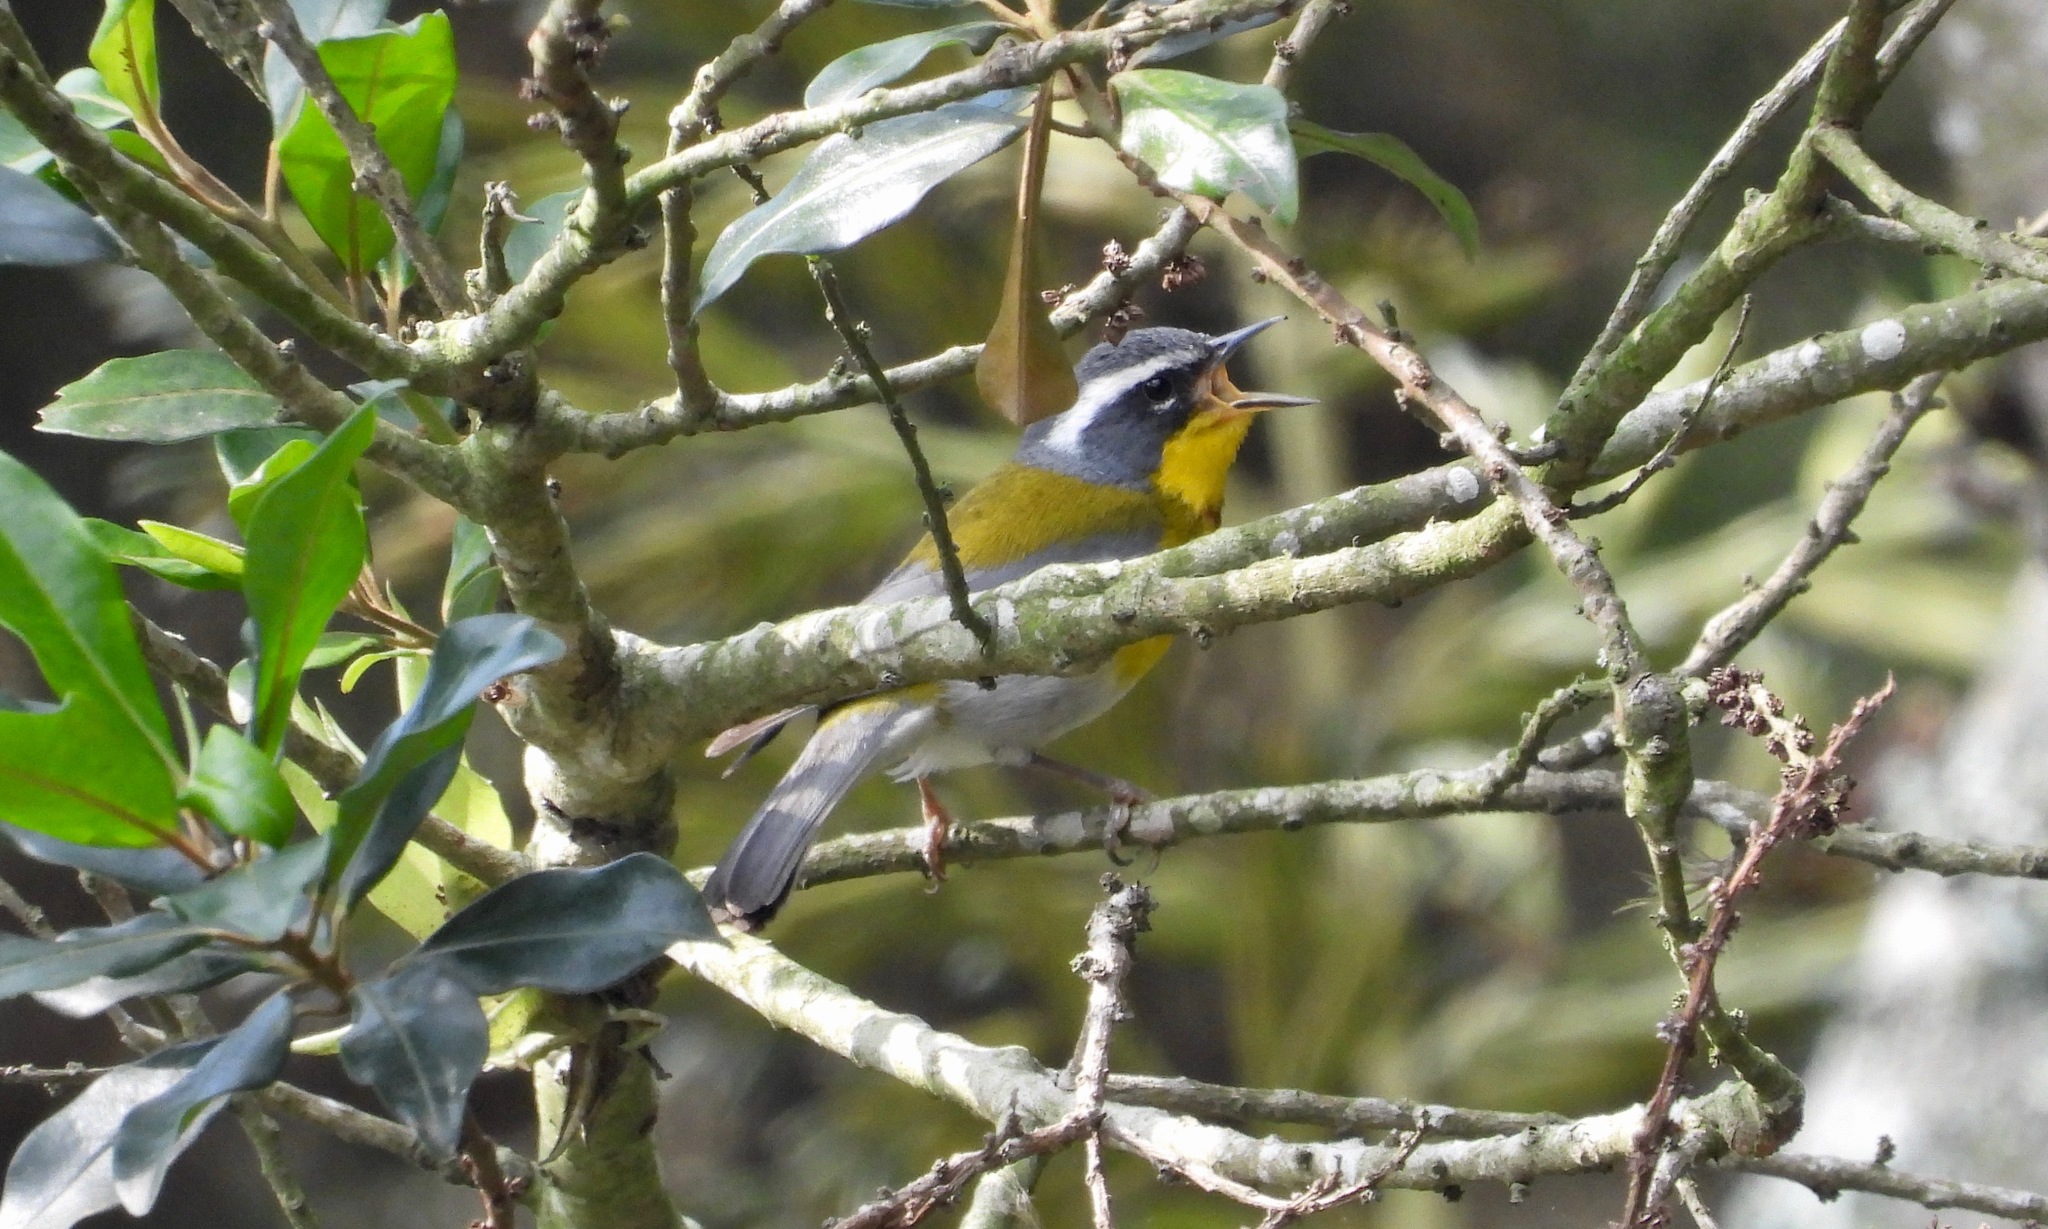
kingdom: Animalia
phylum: Chordata
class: Aves
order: Passeriformes
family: Parulidae
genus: Oreothlypis
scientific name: Oreothlypis superciliosa
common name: Crescent-chested warbler
